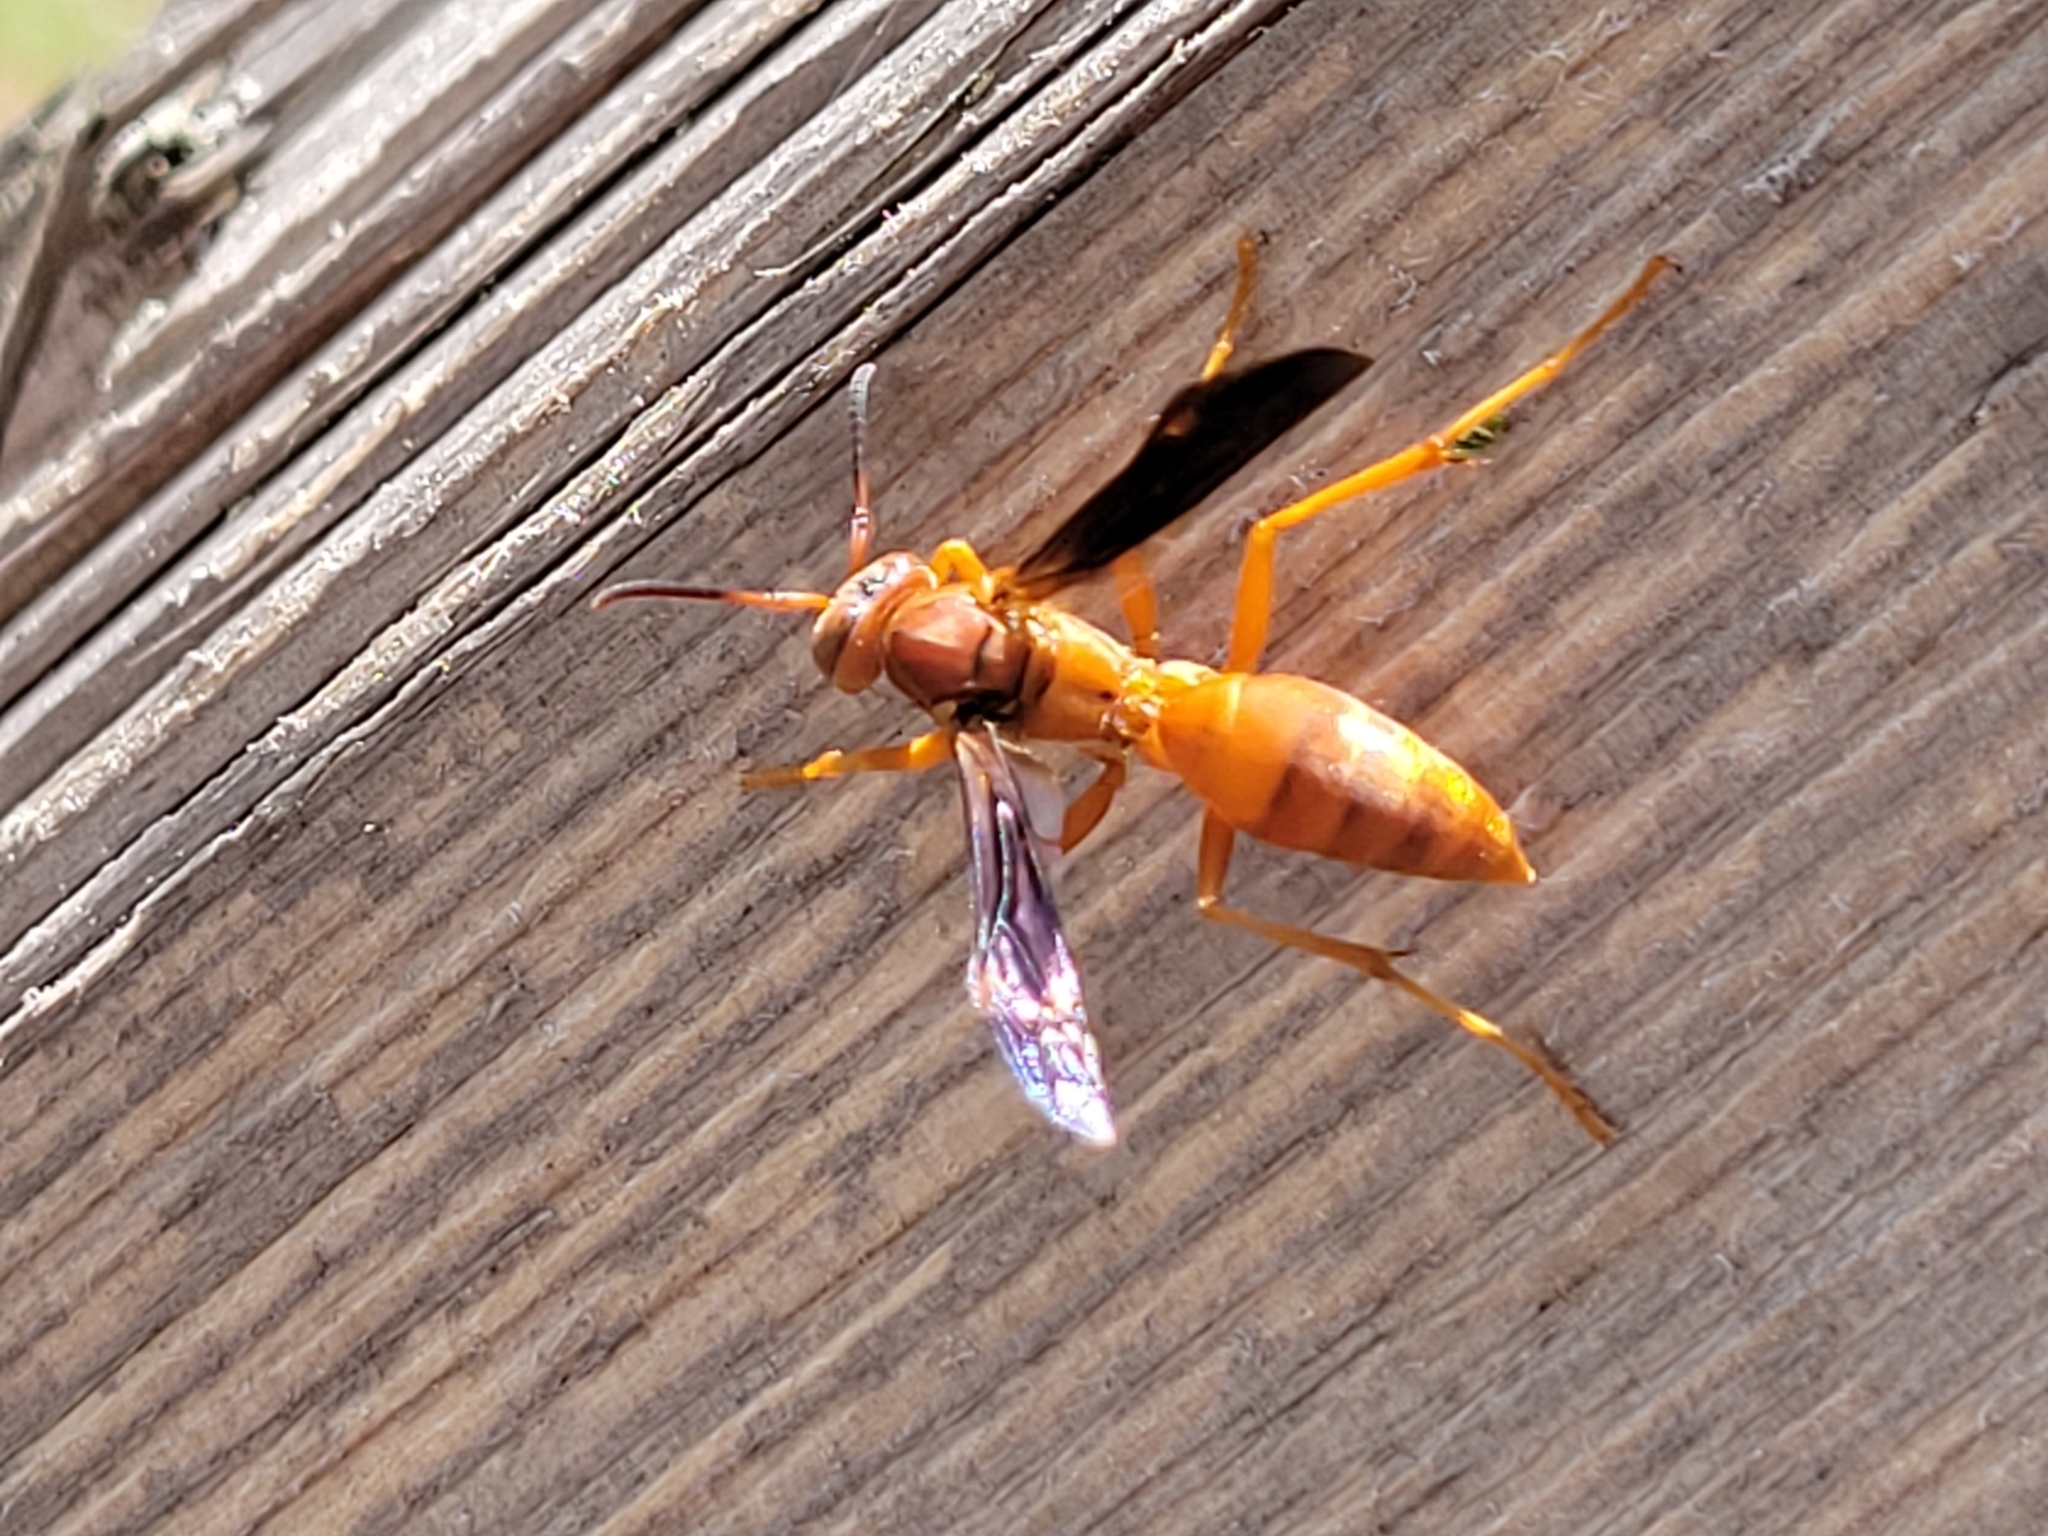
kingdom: Animalia
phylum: Arthropoda
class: Insecta
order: Hymenoptera
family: Vespidae
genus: Fuscopolistes
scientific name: Fuscopolistes
